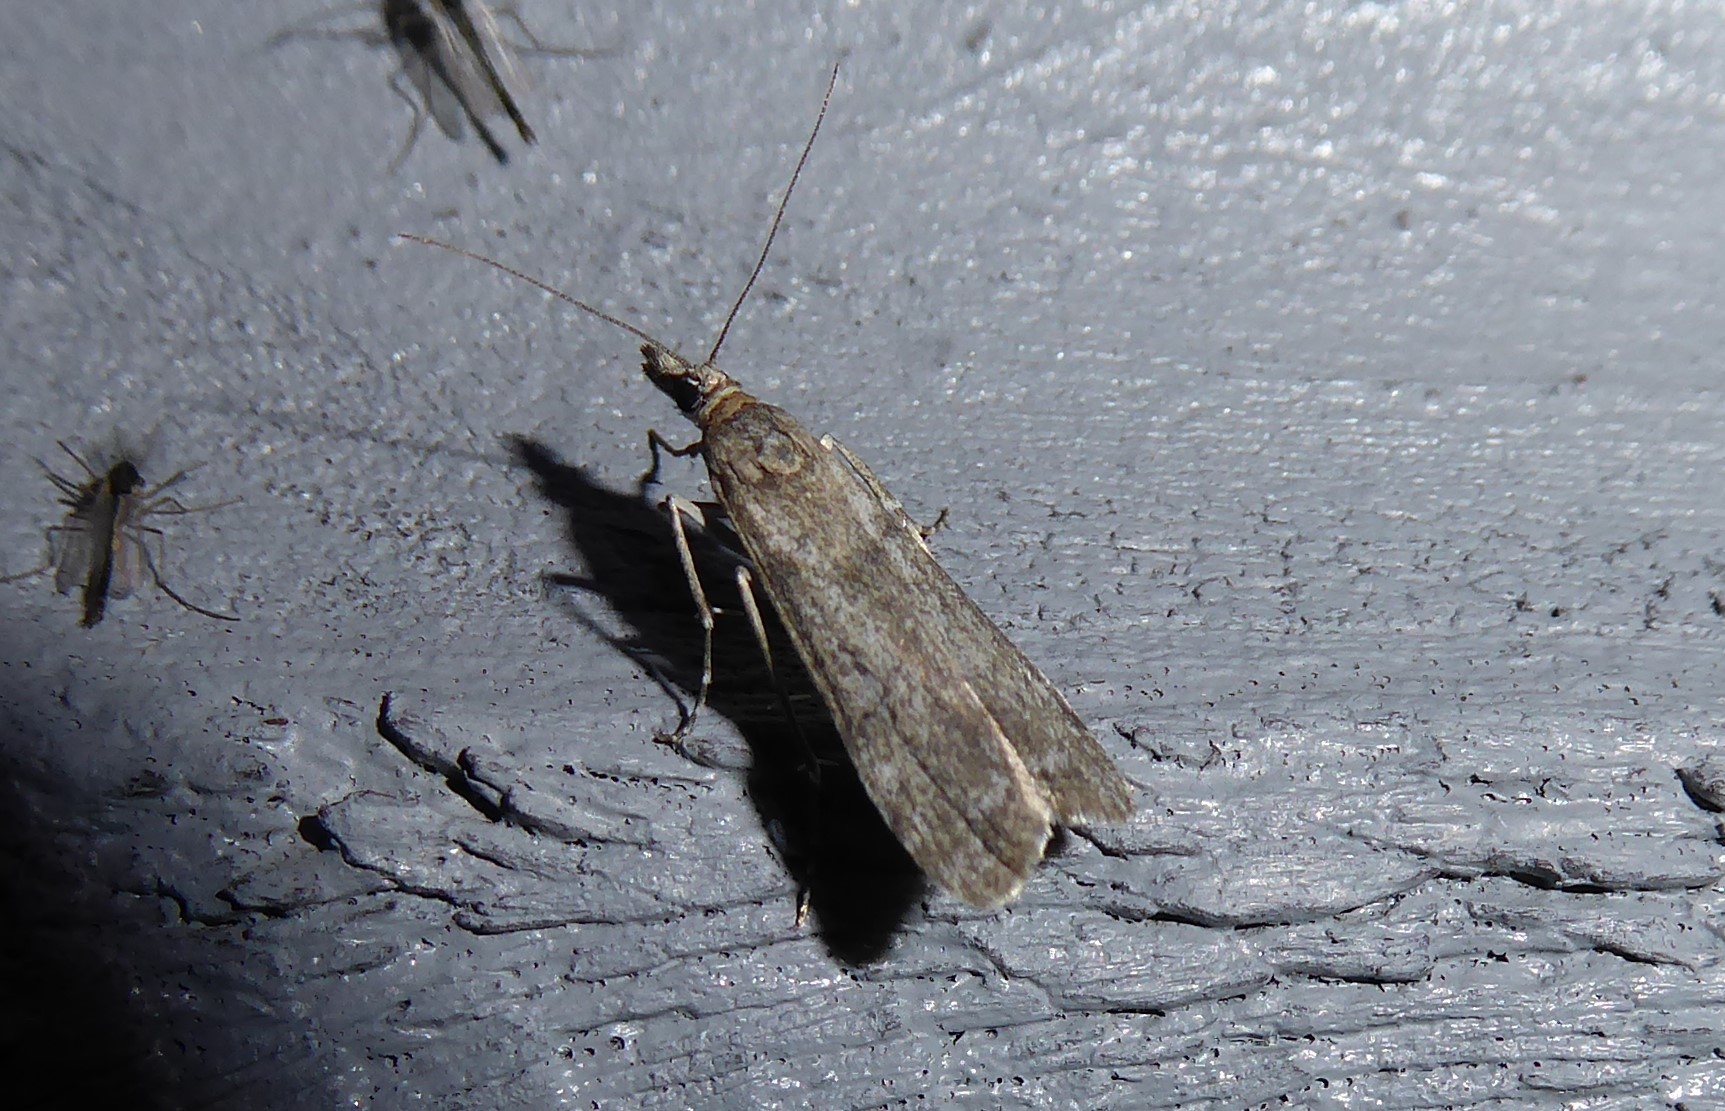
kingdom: Animalia
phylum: Arthropoda
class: Insecta
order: Lepidoptera
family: Crambidae
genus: Eudonia
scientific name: Eudonia leptalea
